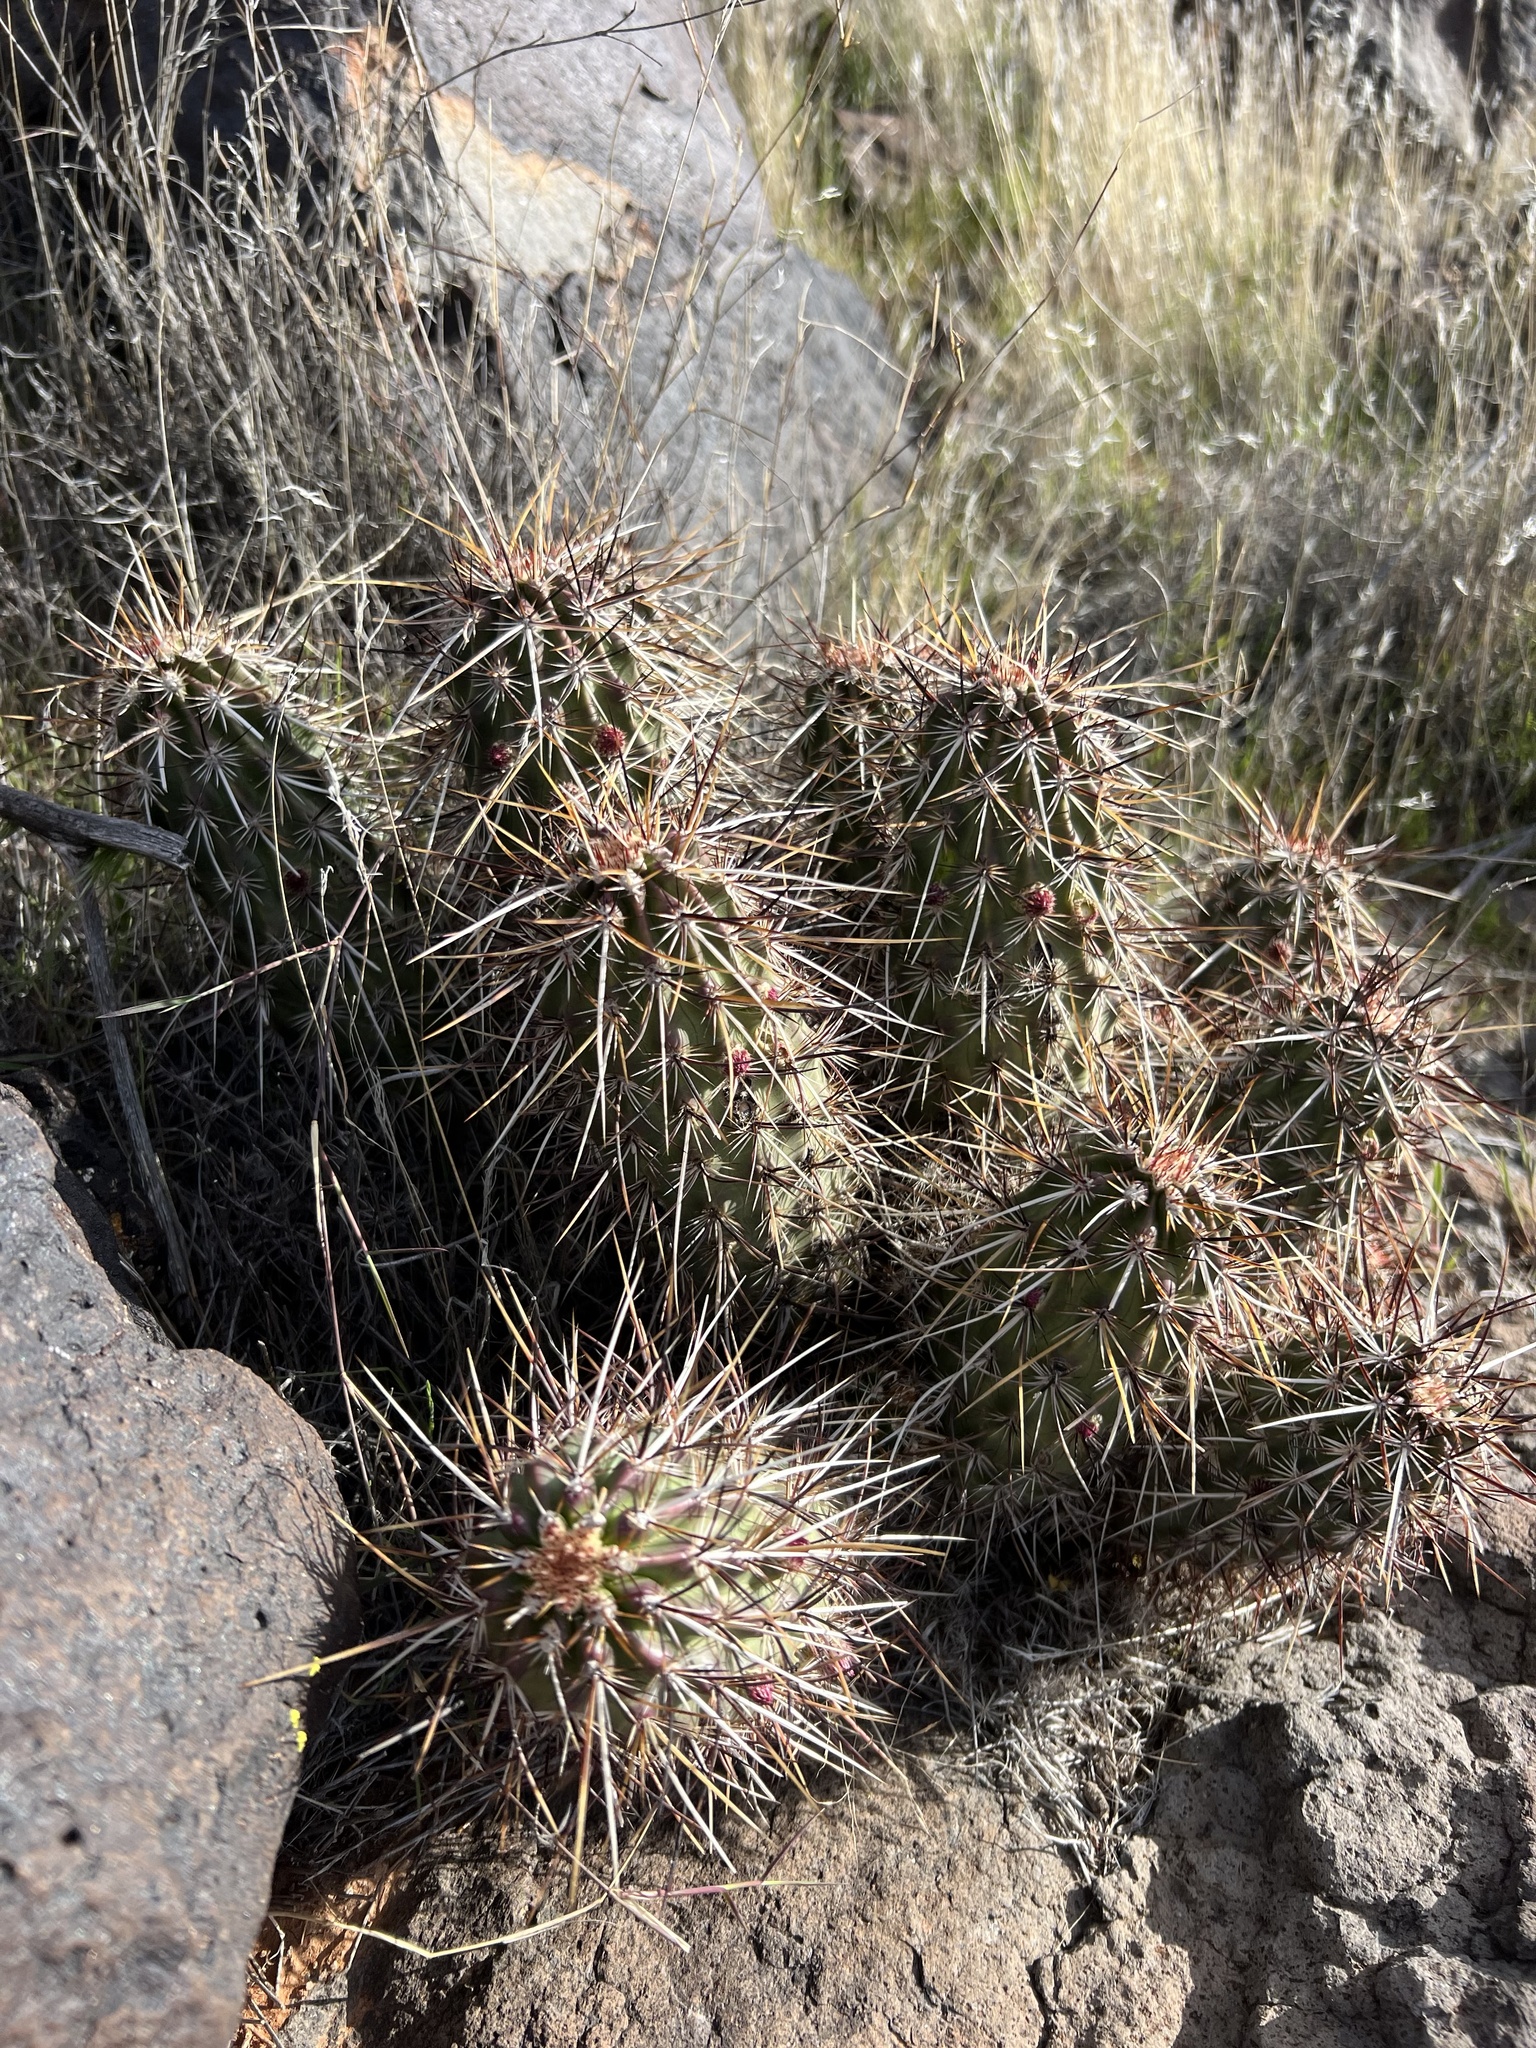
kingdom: Plantae
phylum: Tracheophyta
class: Magnoliopsida
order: Caryophyllales
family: Cactaceae
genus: Echinocereus
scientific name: Echinocereus relictus
